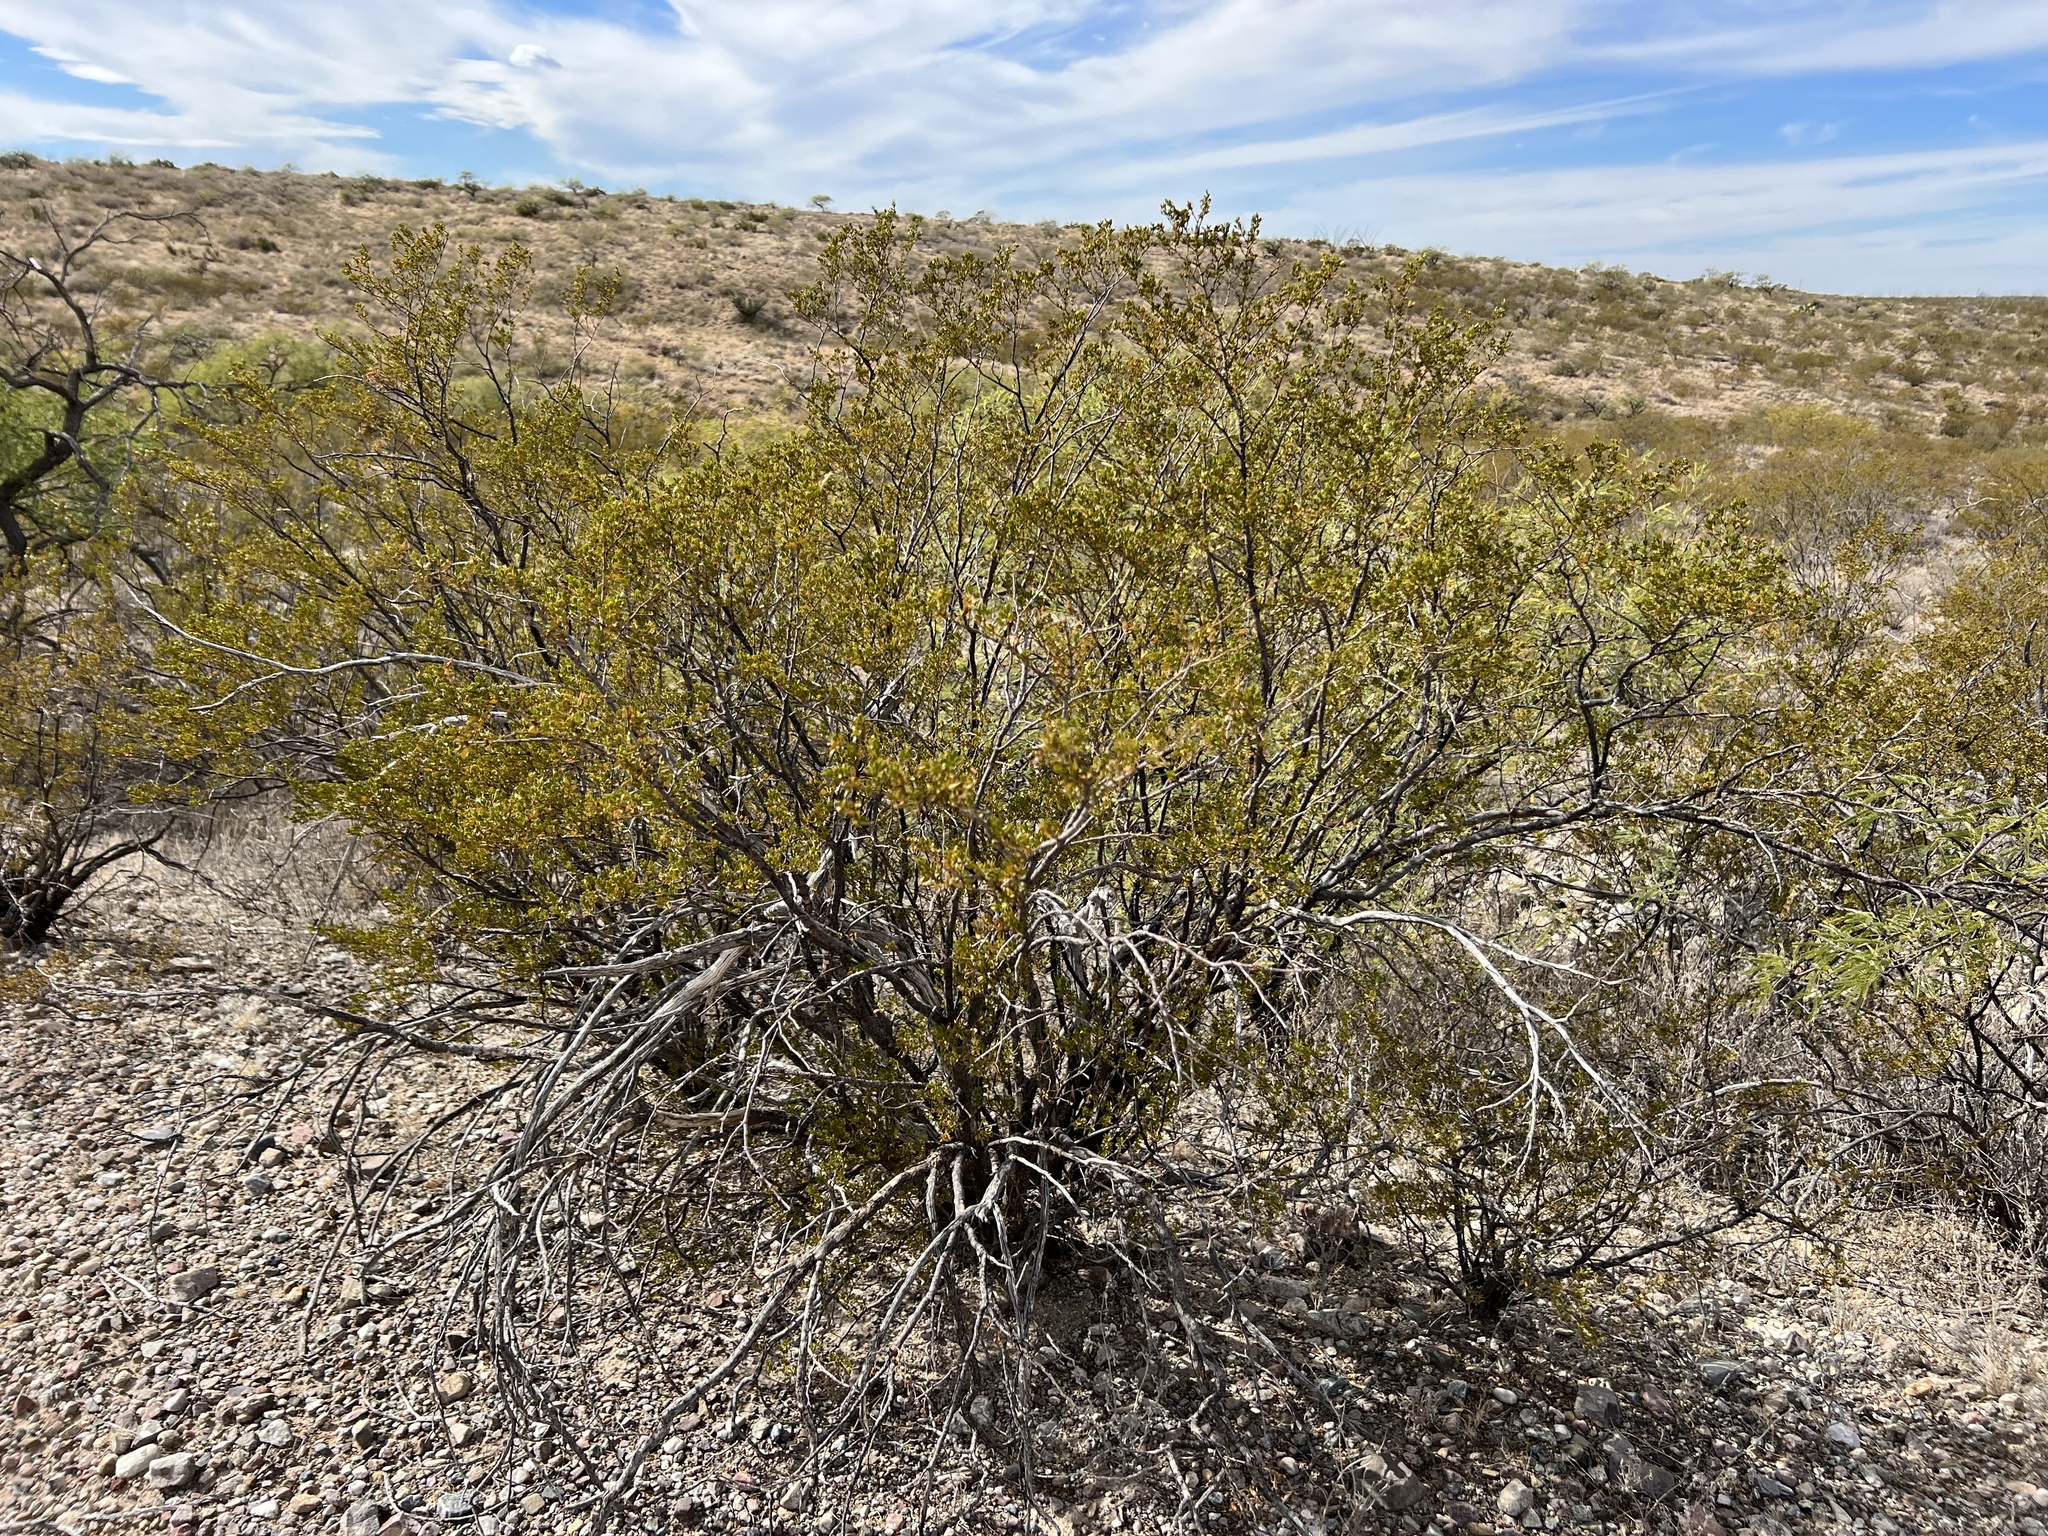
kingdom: Plantae
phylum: Tracheophyta
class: Magnoliopsida
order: Zygophyllales
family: Zygophyllaceae
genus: Larrea
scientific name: Larrea tridentata
